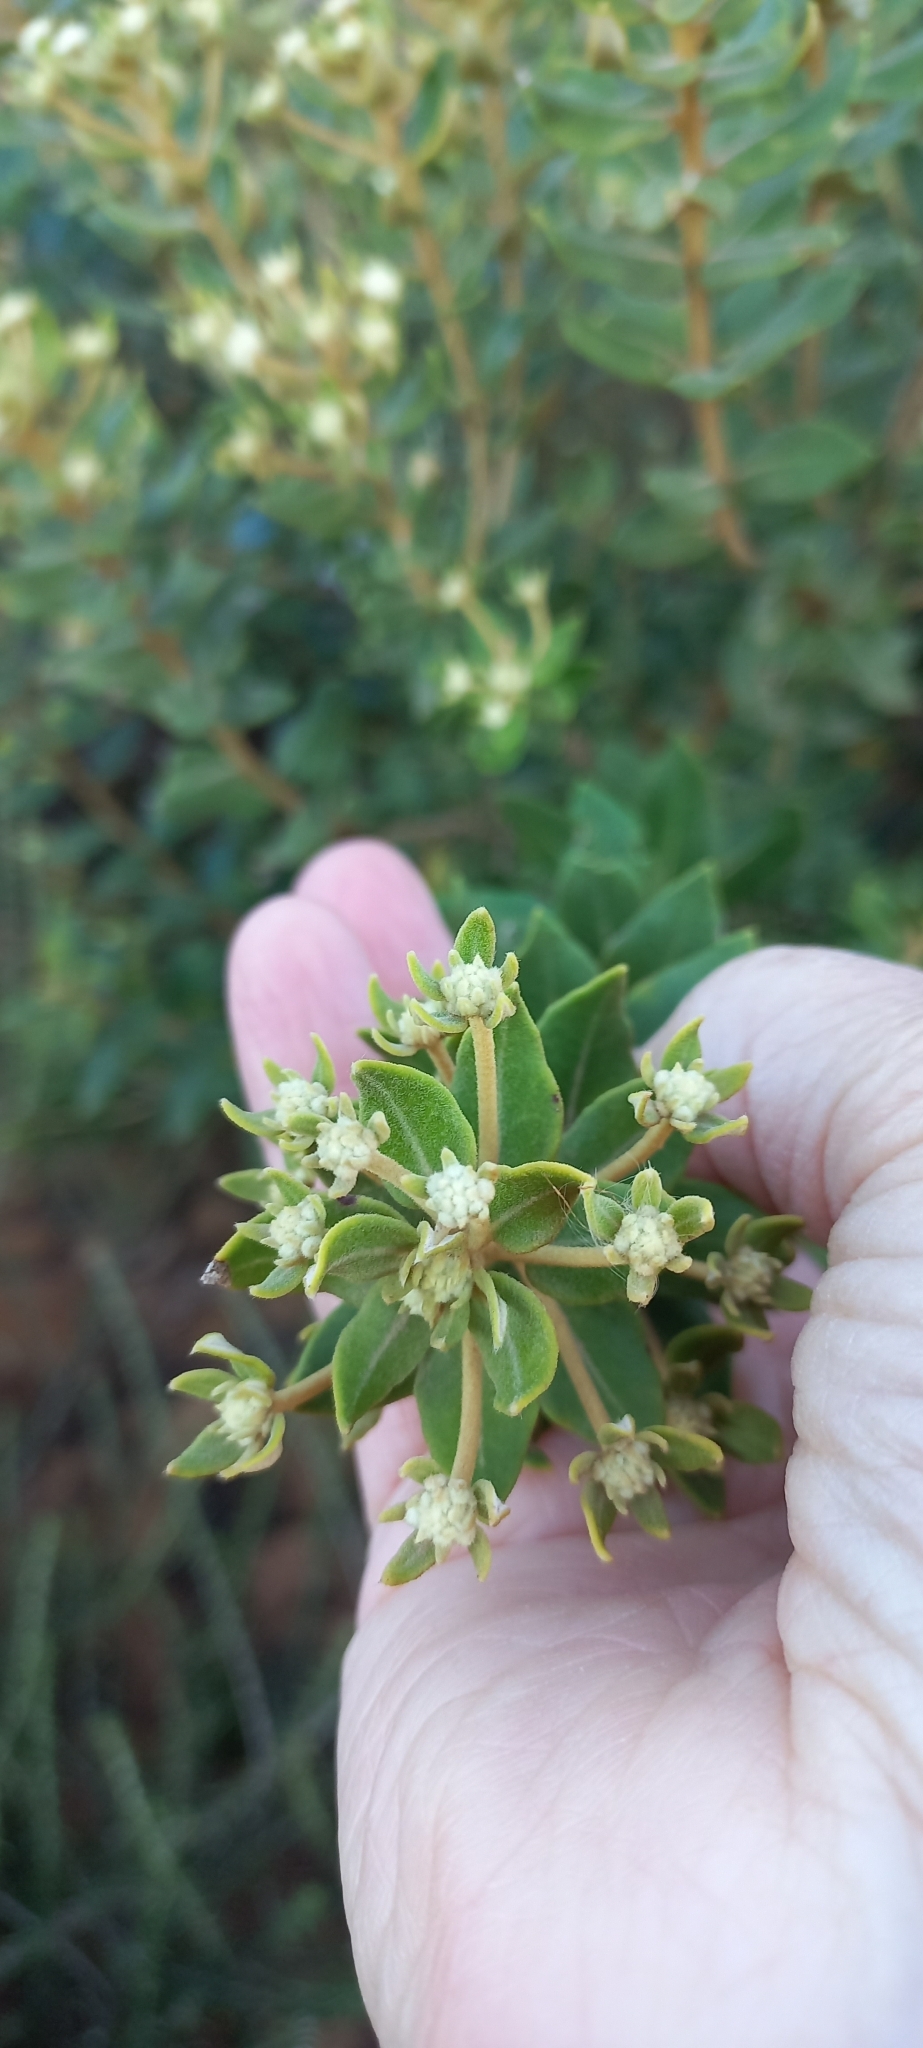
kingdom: Plantae
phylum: Tracheophyta
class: Magnoliopsida
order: Rosales
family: Rhamnaceae
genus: Phylica
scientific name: Phylica buxifolia
